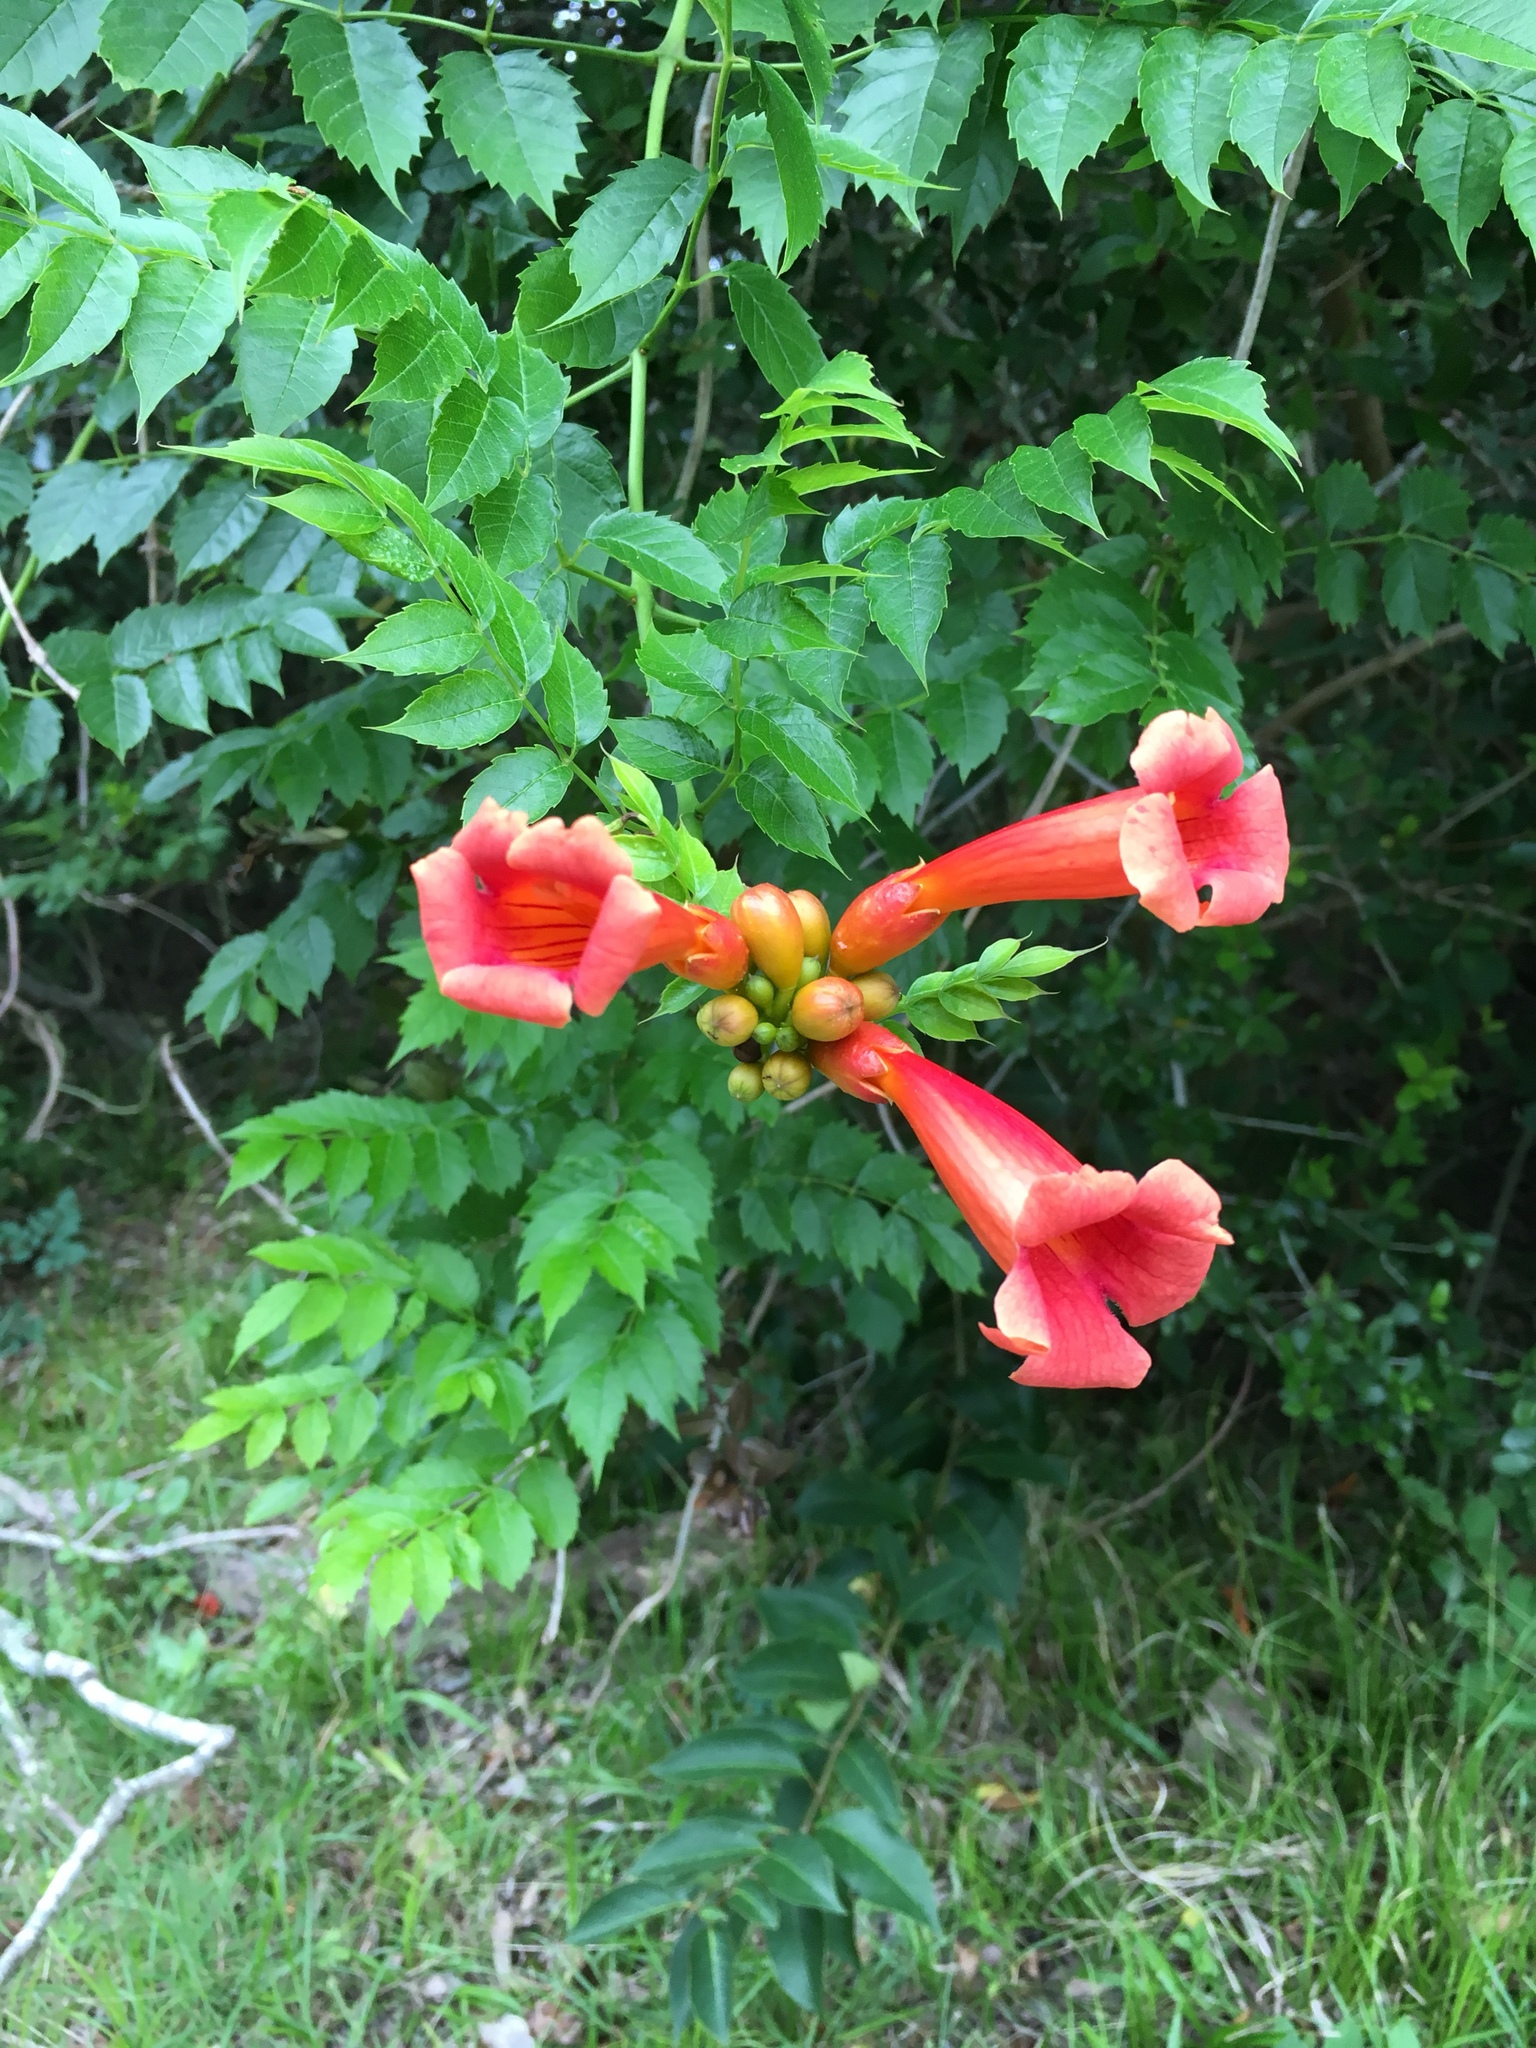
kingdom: Plantae
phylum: Tracheophyta
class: Magnoliopsida
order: Lamiales
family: Bignoniaceae
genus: Campsis
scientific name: Campsis radicans
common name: Trumpet-creeper
